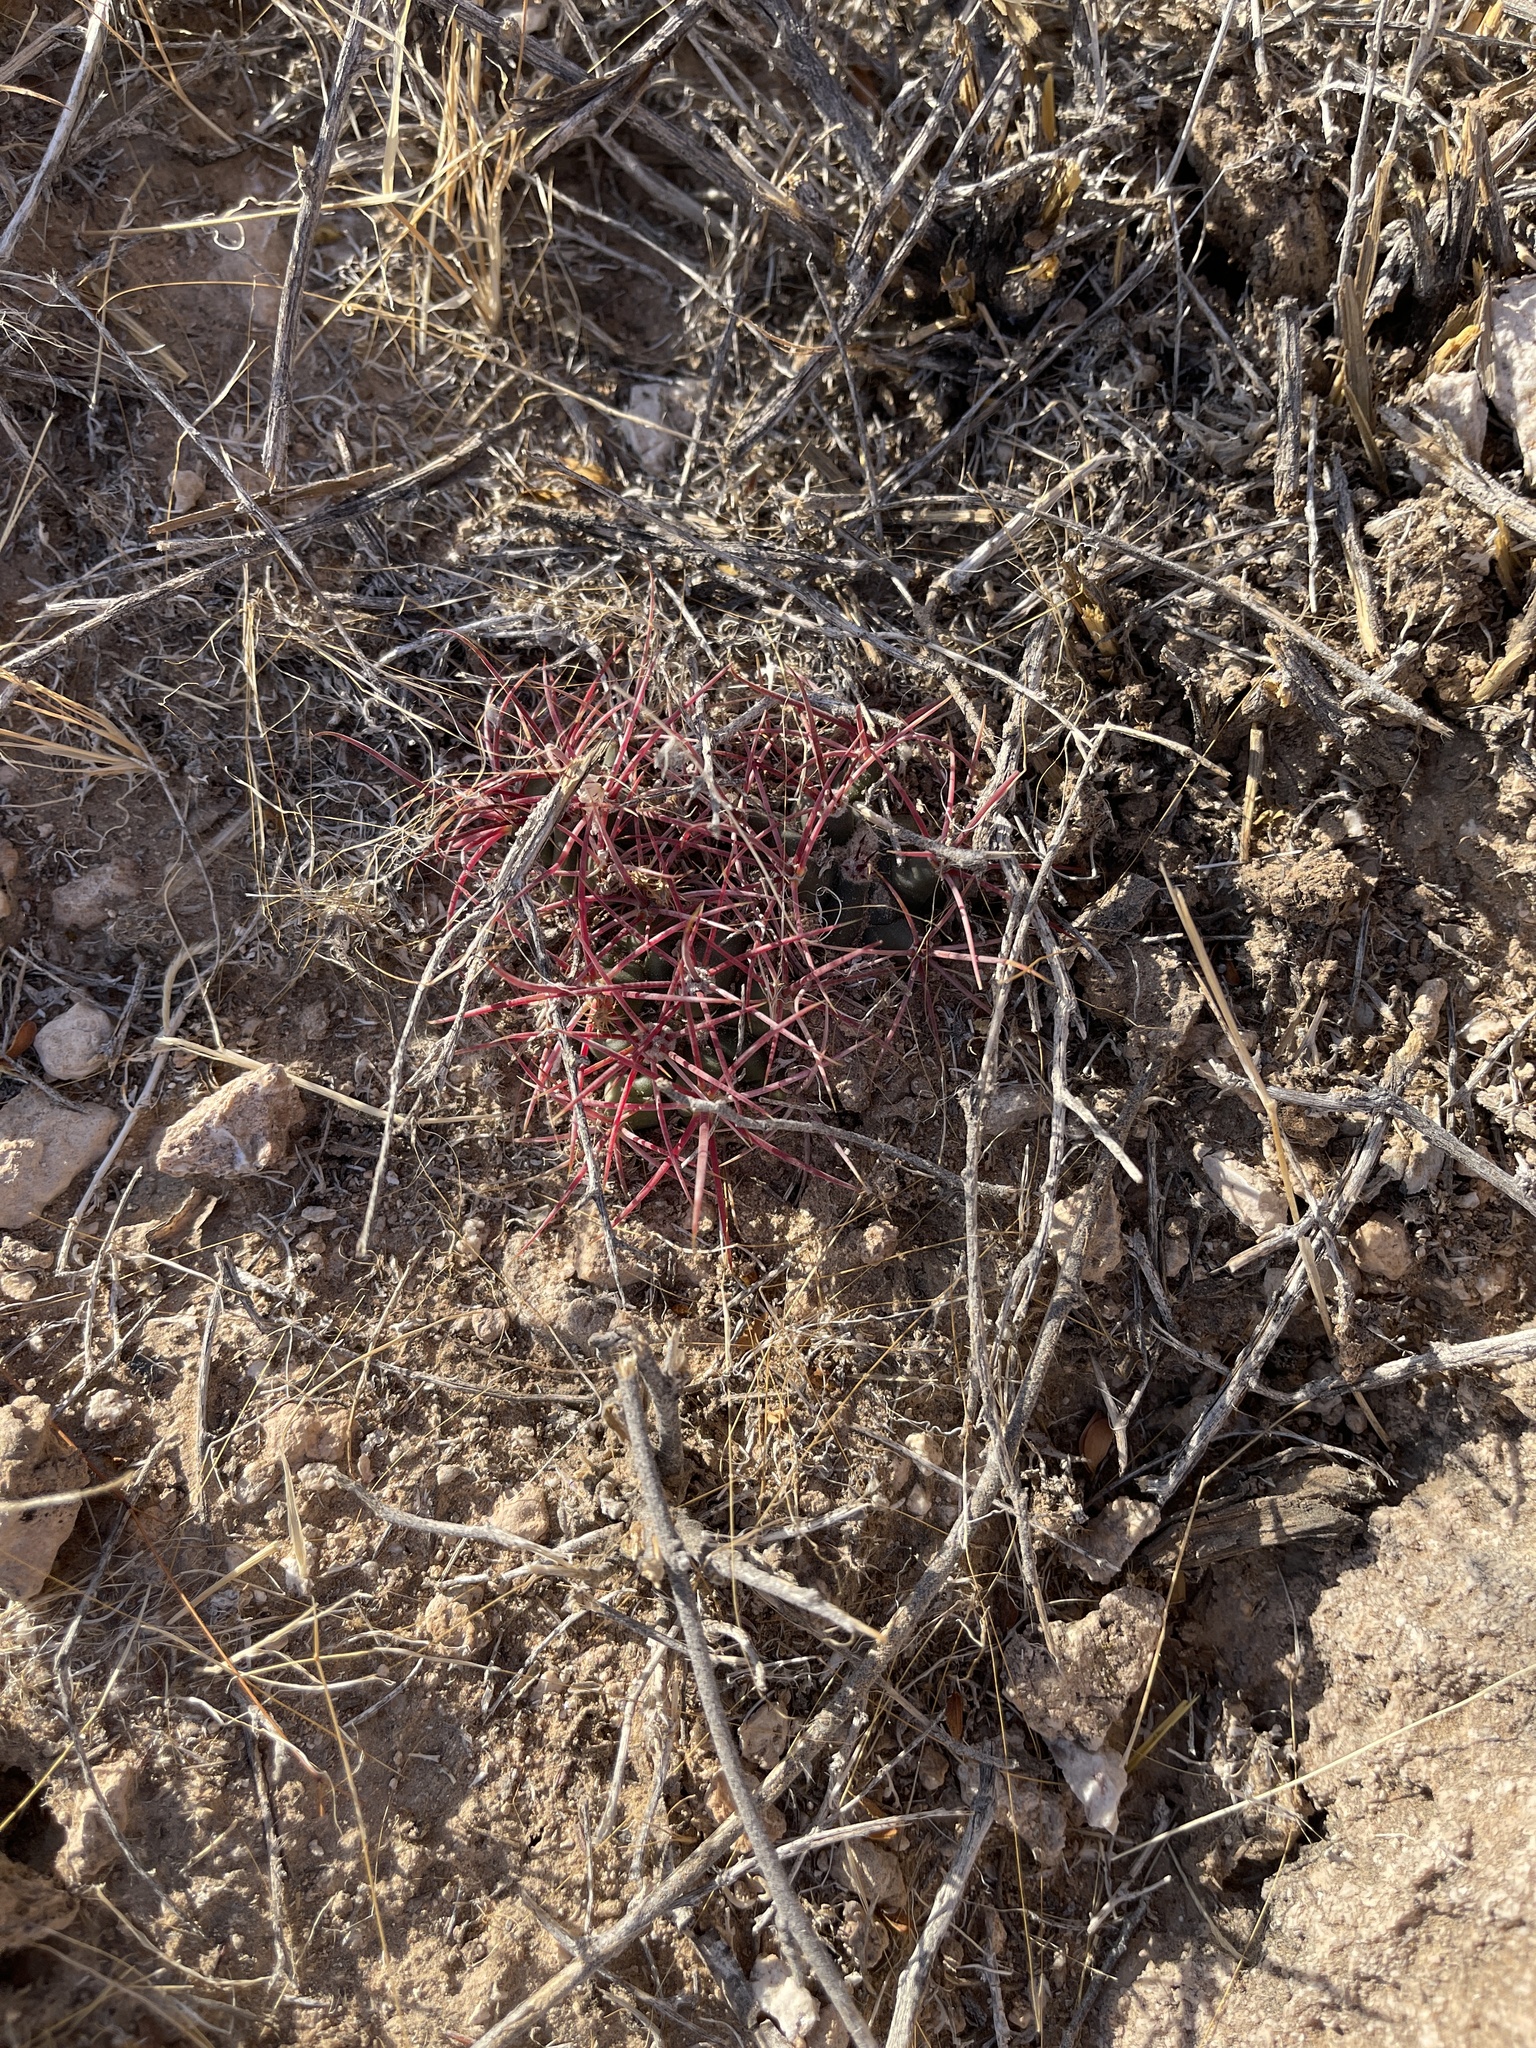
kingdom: Plantae
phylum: Tracheophyta
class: Magnoliopsida
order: Caryophyllales
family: Cactaceae
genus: Ferocactus
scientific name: Ferocactus cylindraceus
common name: California barrel cactus
